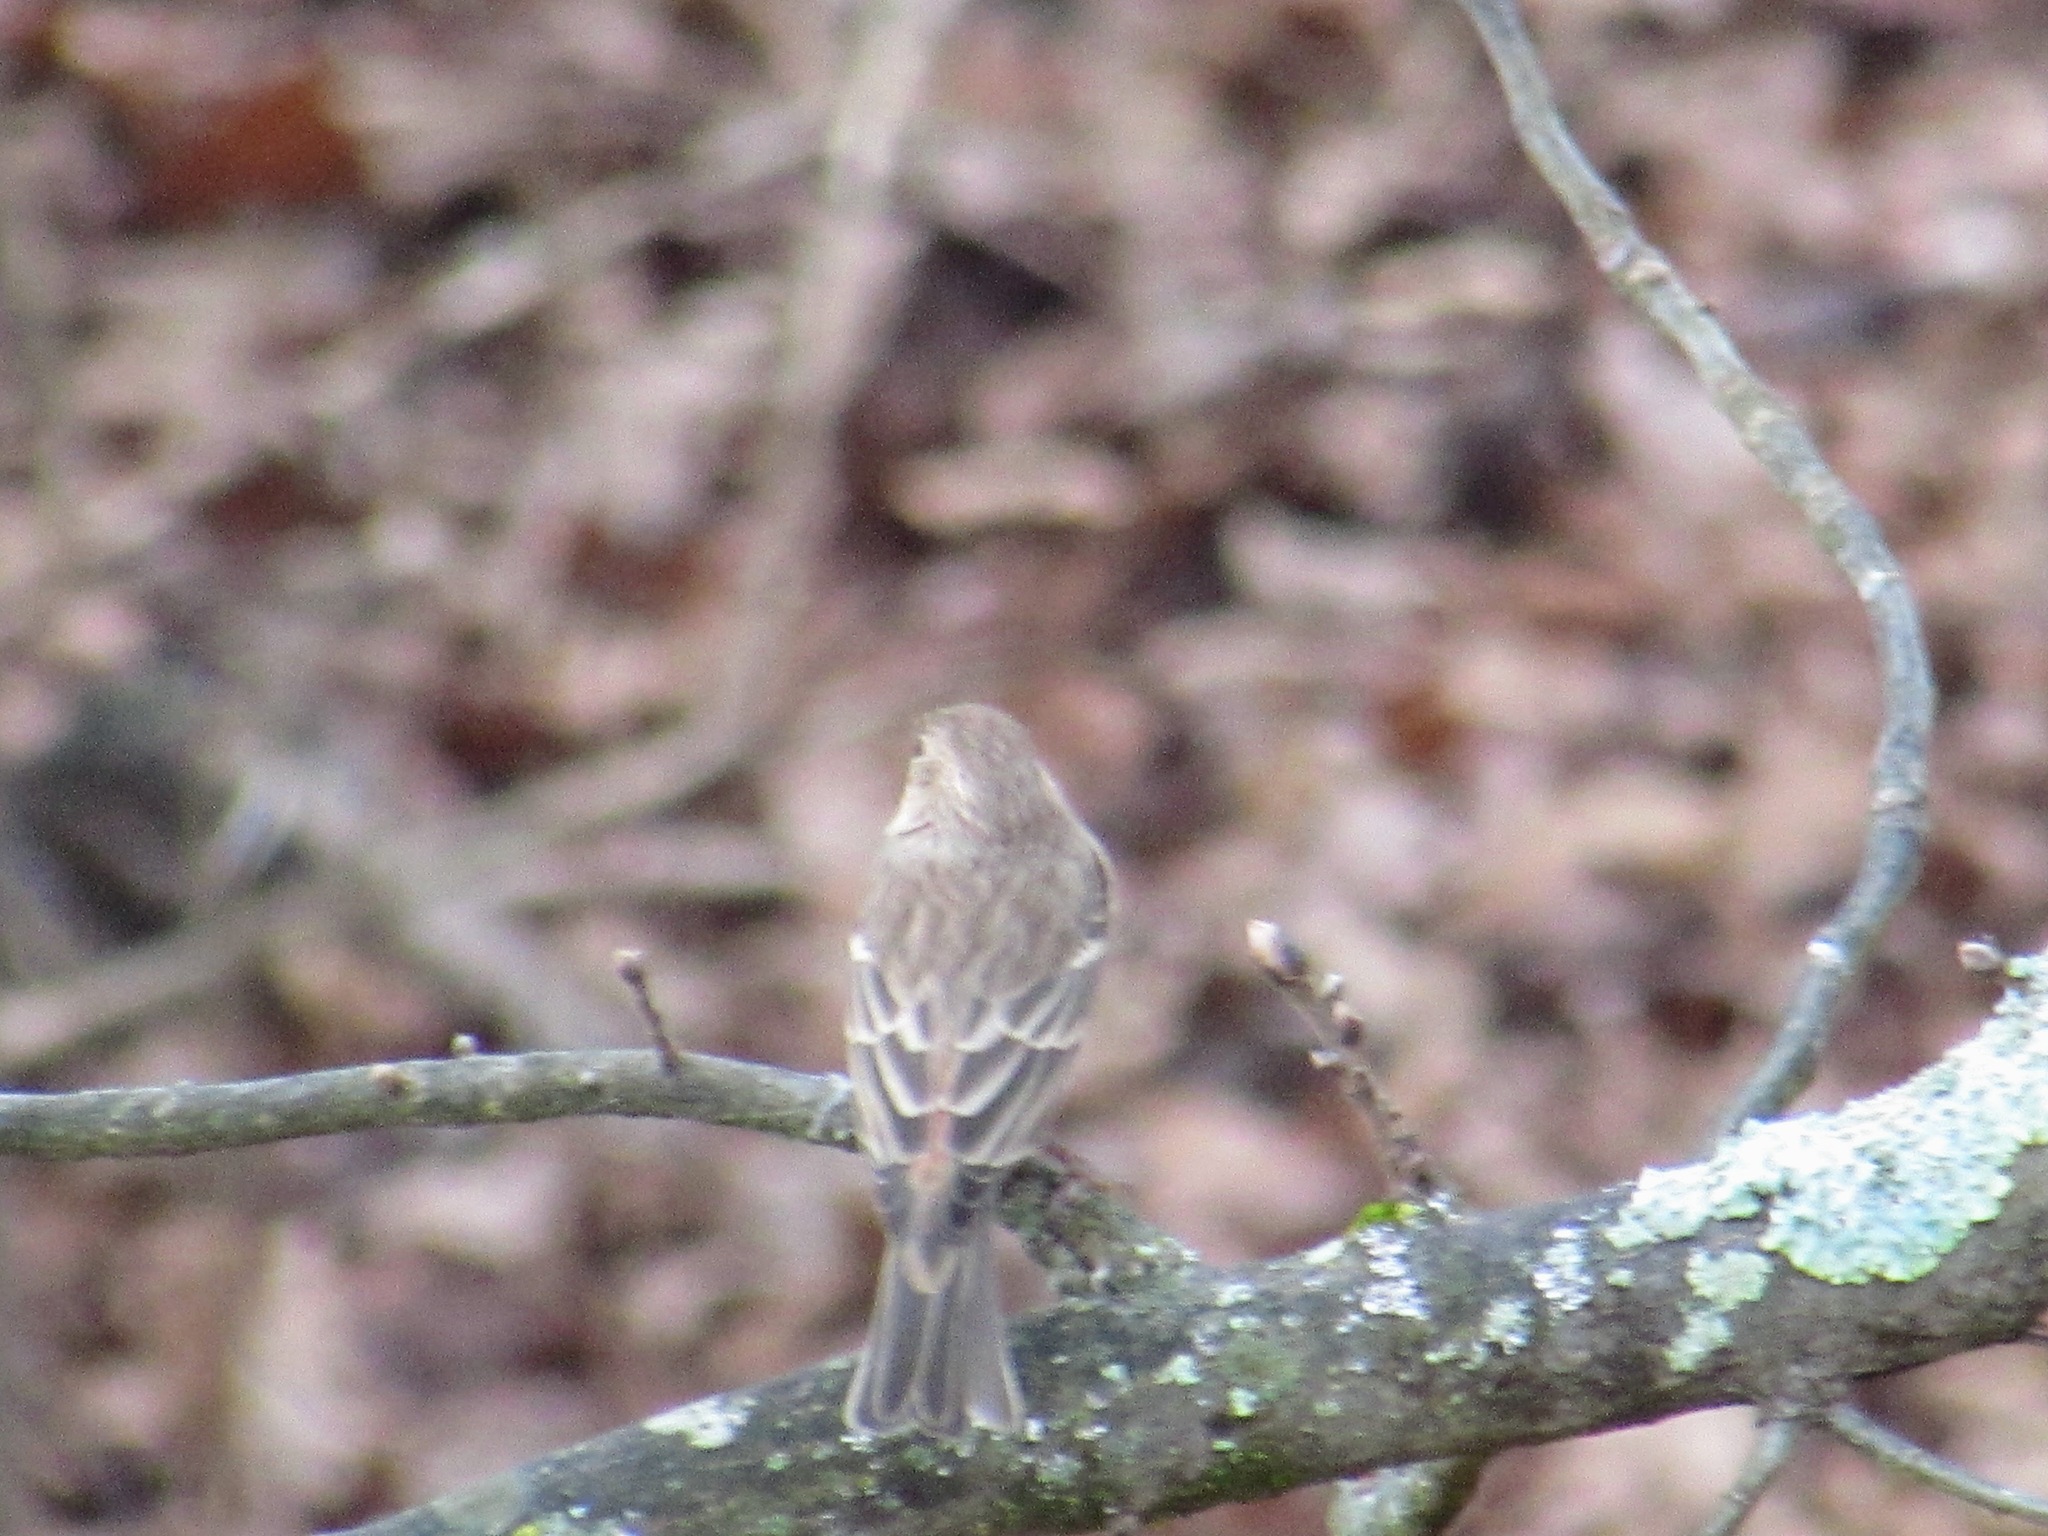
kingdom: Animalia
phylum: Chordata
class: Aves
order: Passeriformes
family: Fringillidae
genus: Haemorhous
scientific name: Haemorhous mexicanus
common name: House finch
